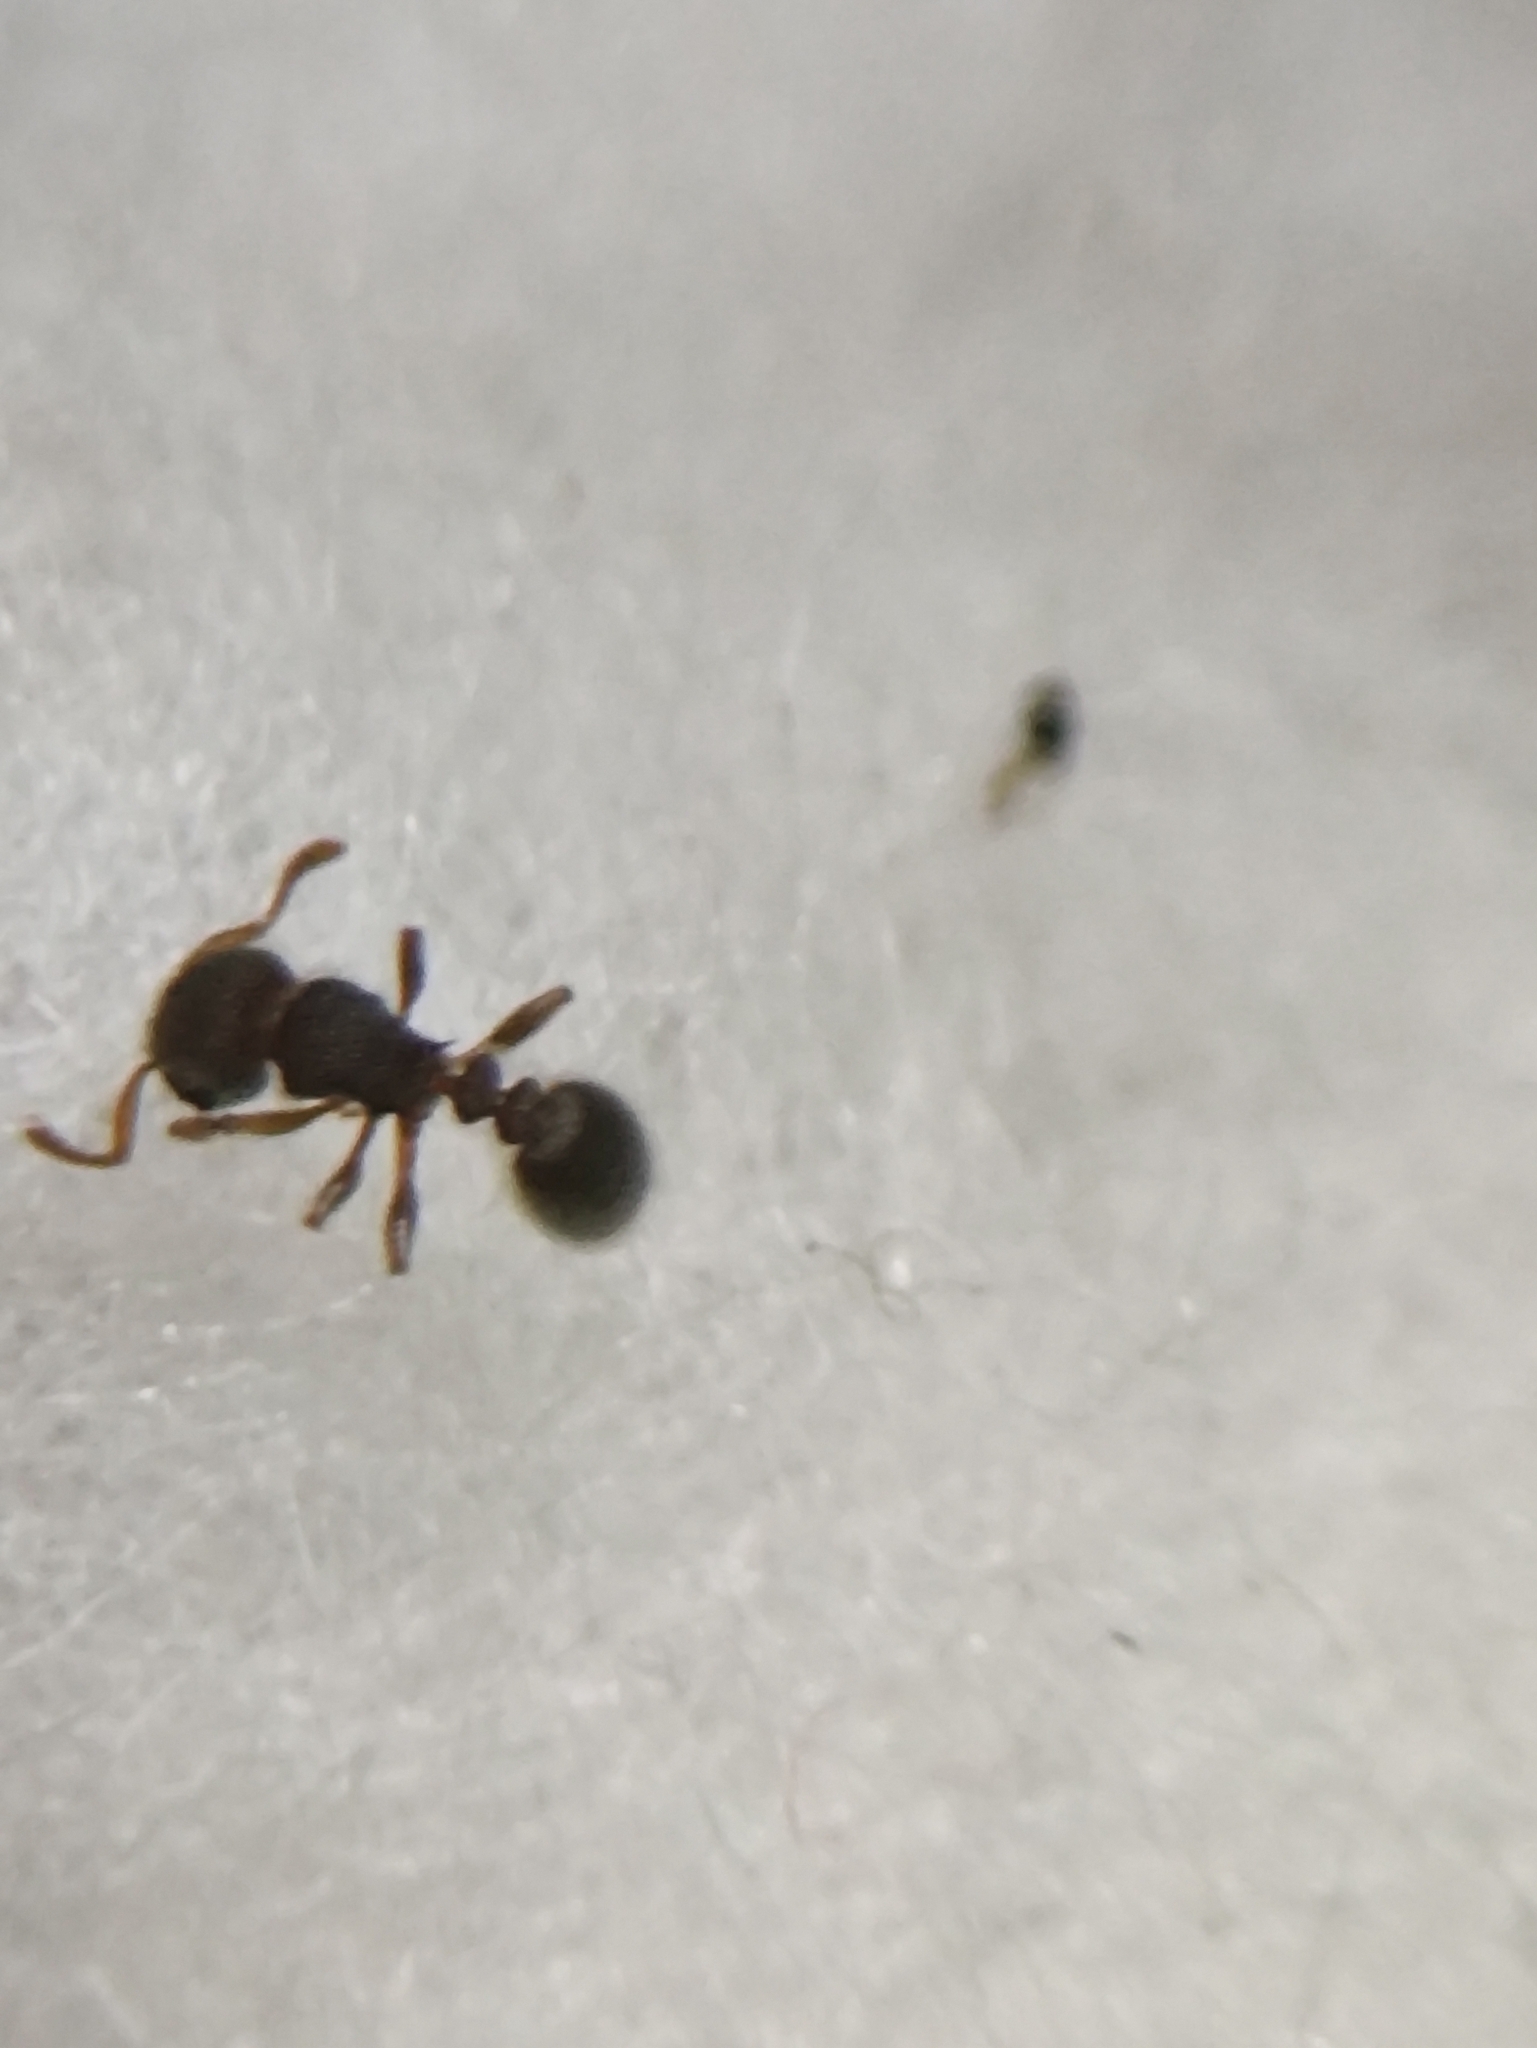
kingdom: Animalia
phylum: Arthropoda
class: Insecta
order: Hymenoptera
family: Formicidae
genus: Tetramorium
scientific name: Tetramorium walshi
